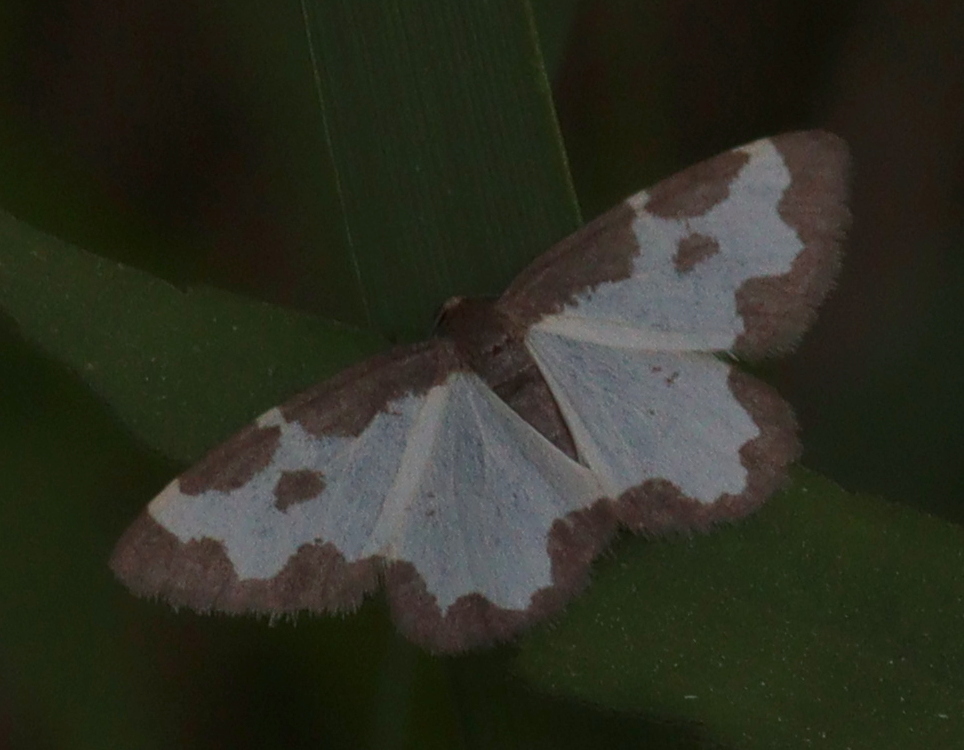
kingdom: Animalia
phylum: Arthropoda
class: Insecta
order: Lepidoptera
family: Geometridae
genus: Lomaspilis
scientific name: Lomaspilis marginata
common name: Clouded border
